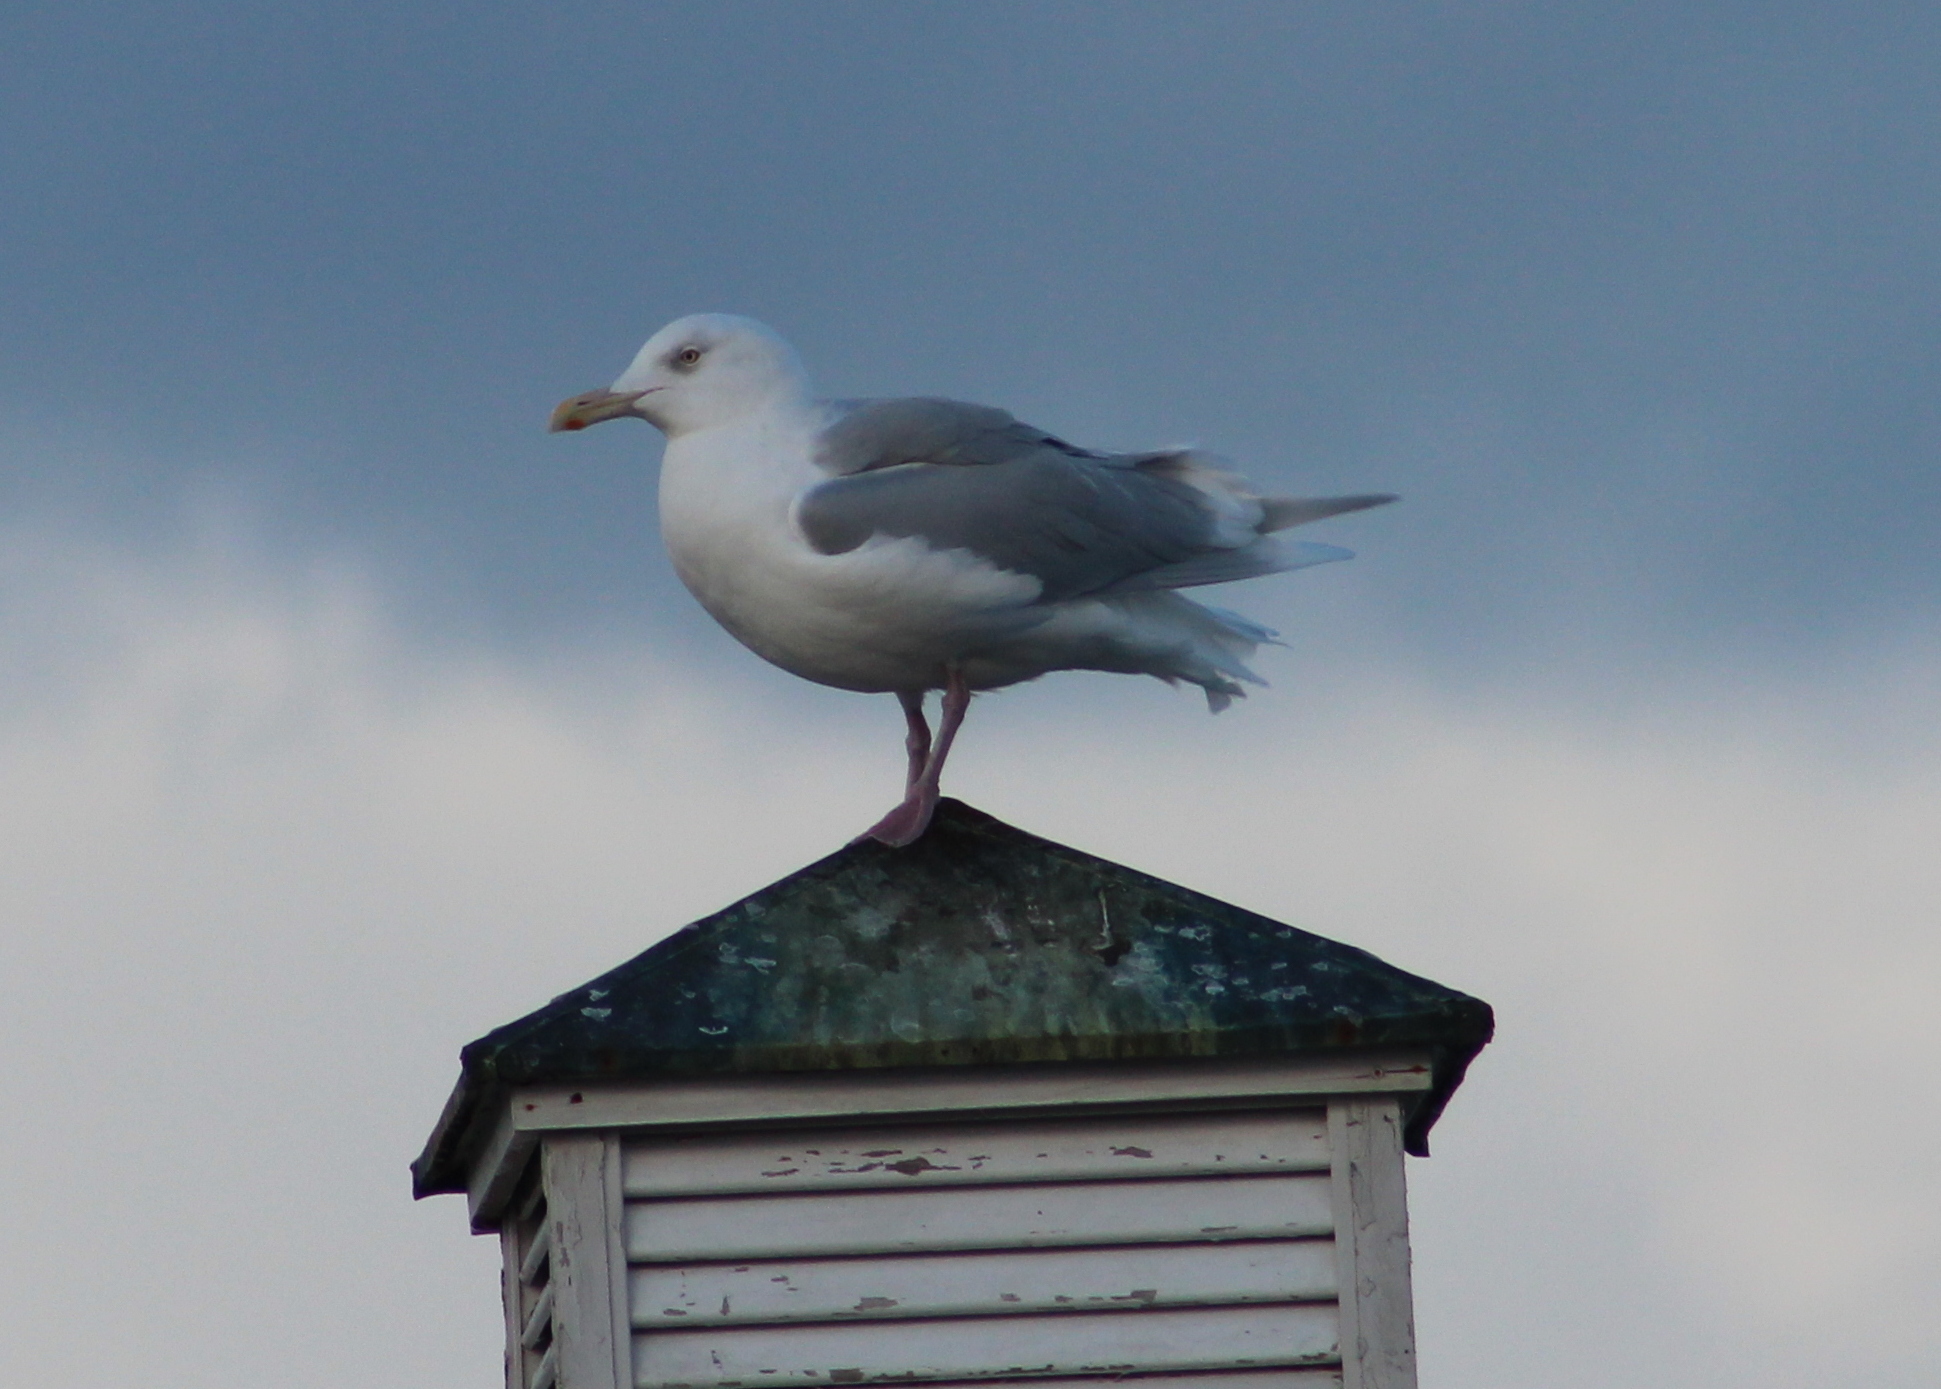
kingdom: Animalia
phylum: Chordata
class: Aves
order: Charadriiformes
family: Laridae
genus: Larus
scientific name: Larus hyperboreus
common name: Glaucous gull
